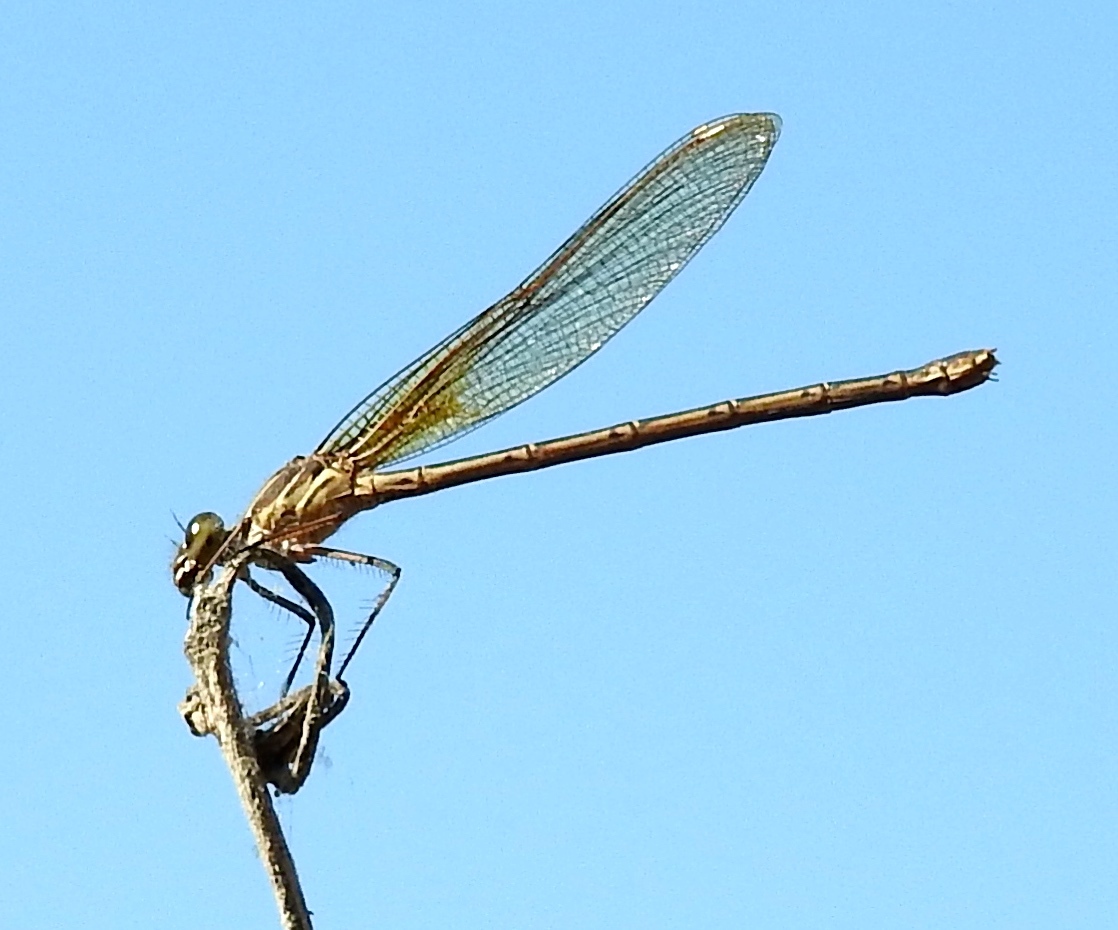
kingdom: Animalia
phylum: Arthropoda
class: Insecta
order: Odonata
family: Calopterygidae
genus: Hetaerina
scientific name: Hetaerina americana
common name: American rubyspot
